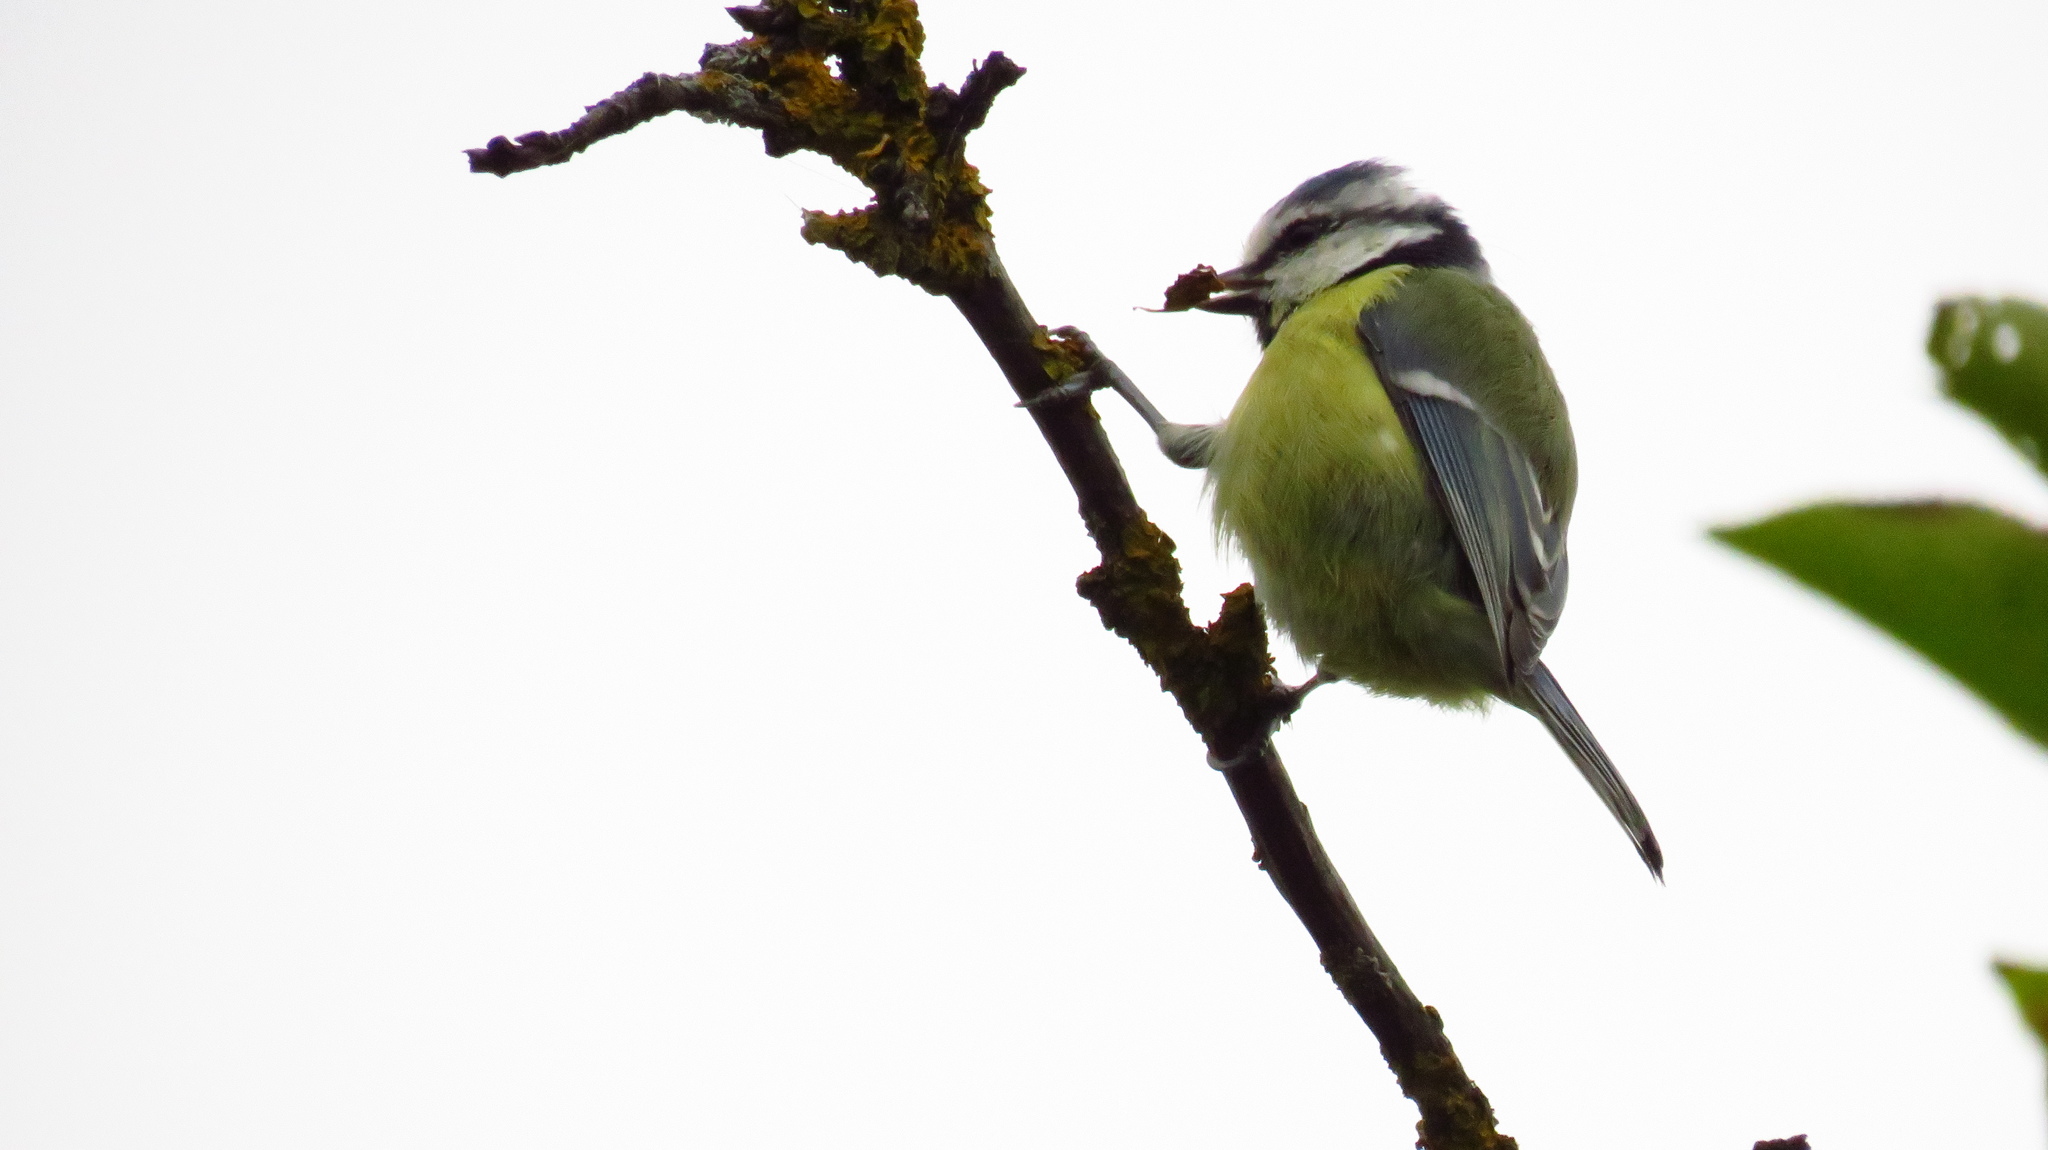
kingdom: Animalia
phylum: Chordata
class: Aves
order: Passeriformes
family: Paridae
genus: Cyanistes
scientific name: Cyanistes caeruleus
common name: Eurasian blue tit
